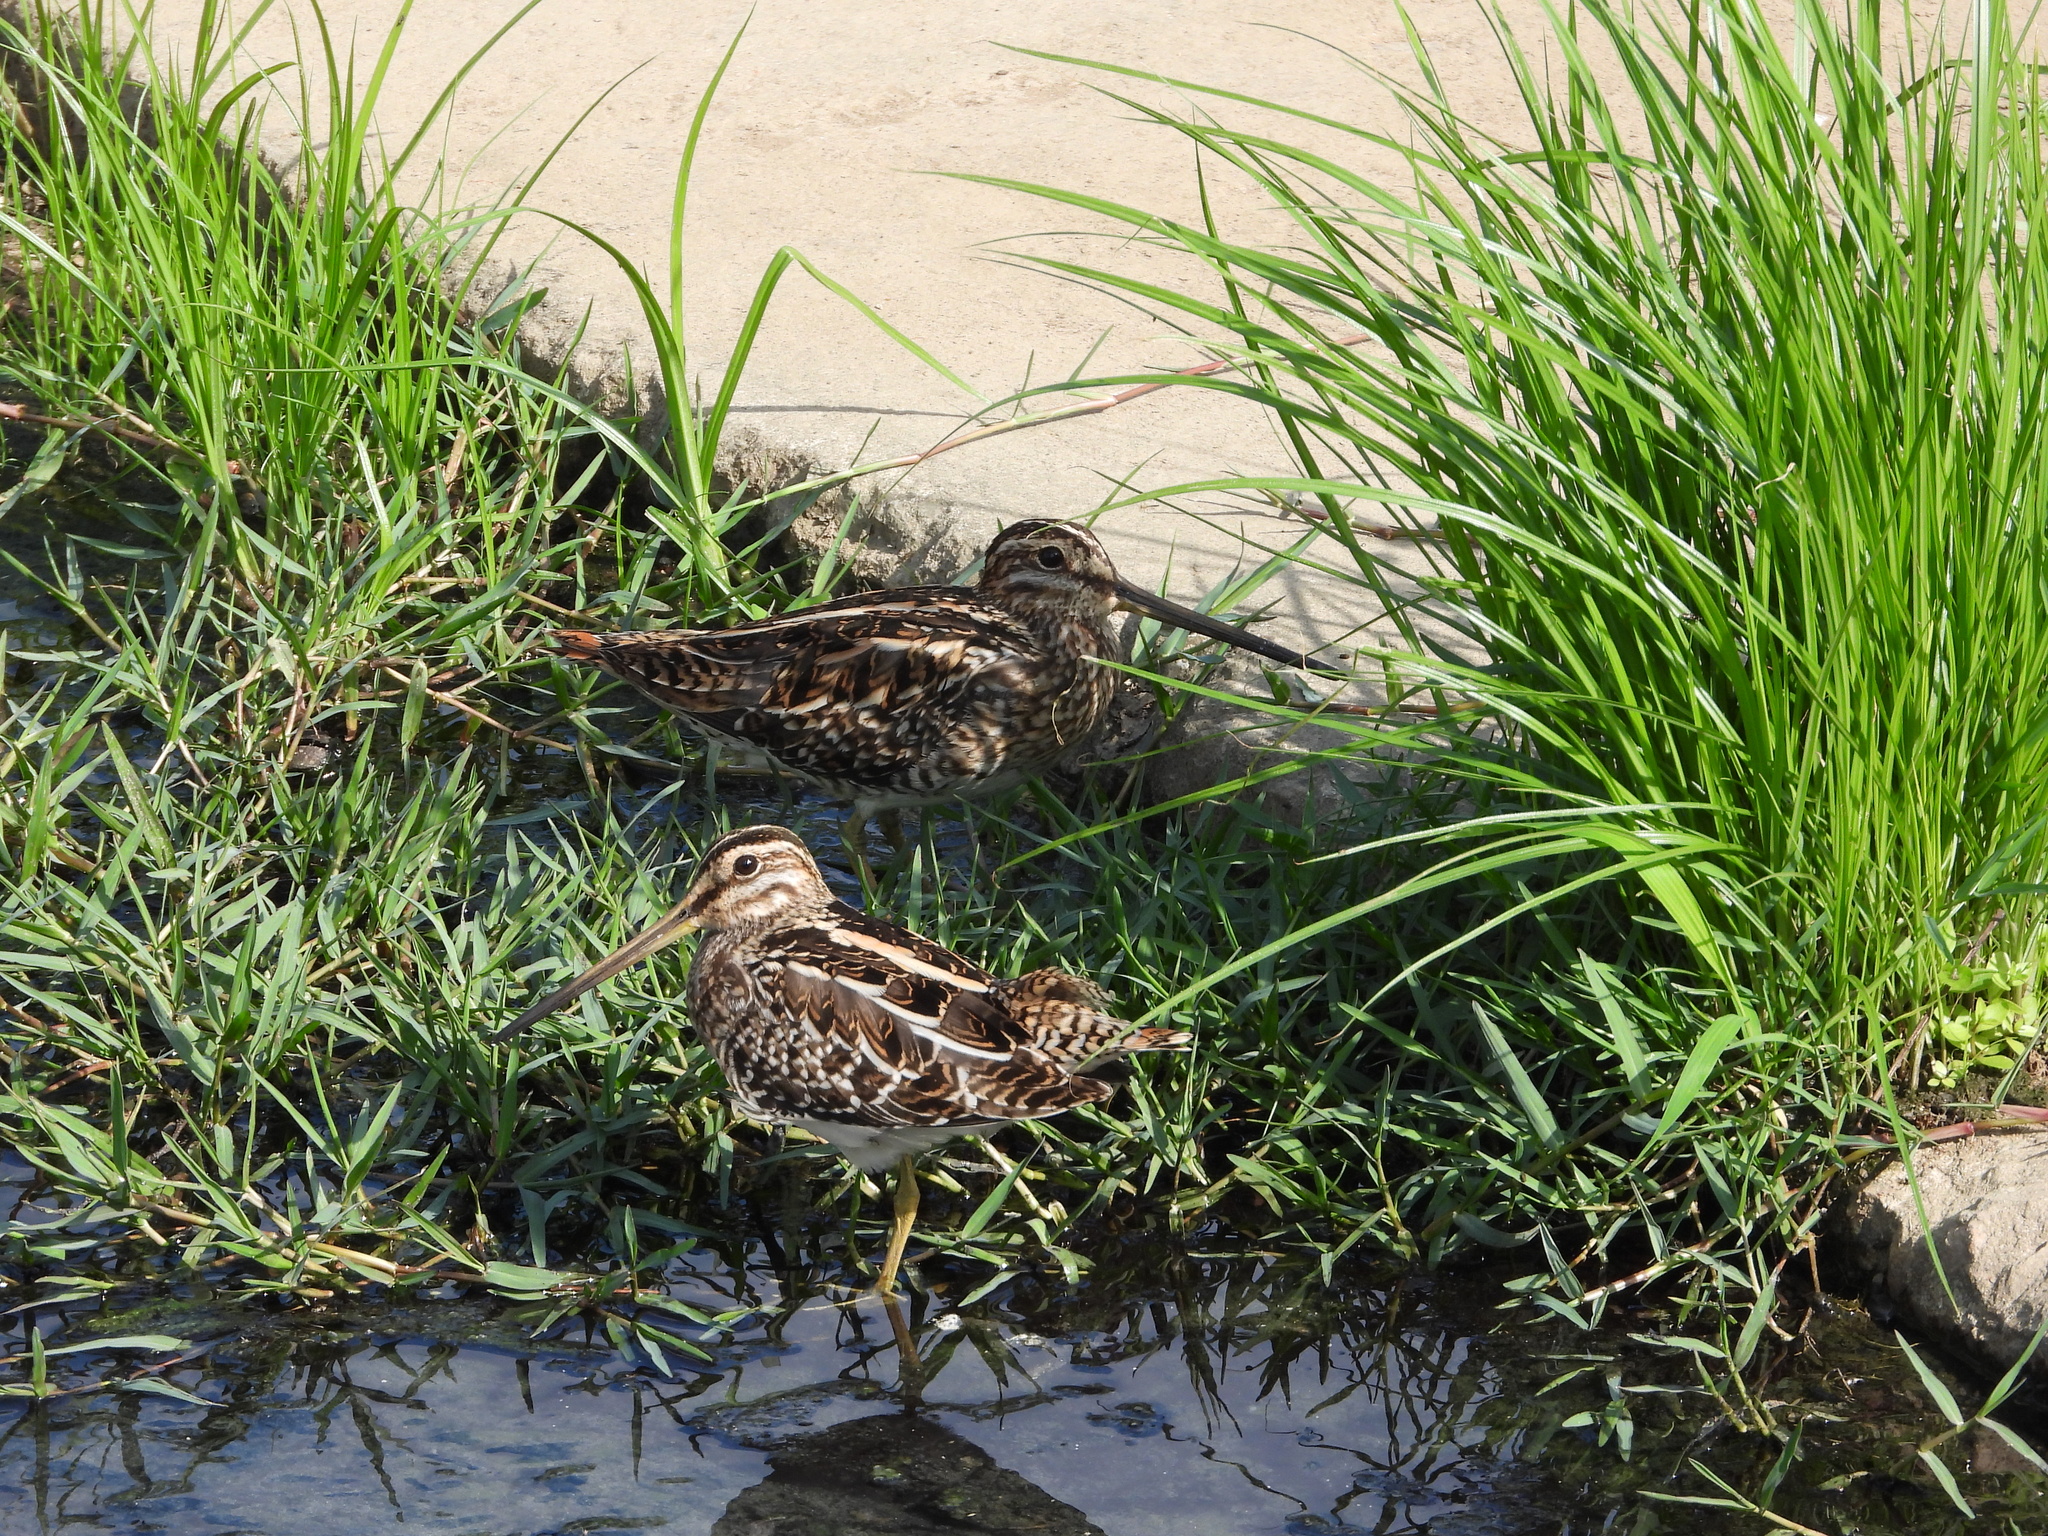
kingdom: Animalia
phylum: Chordata
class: Aves
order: Charadriiformes
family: Scolopacidae
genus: Gallinago
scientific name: Gallinago gallinago
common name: Common snipe
